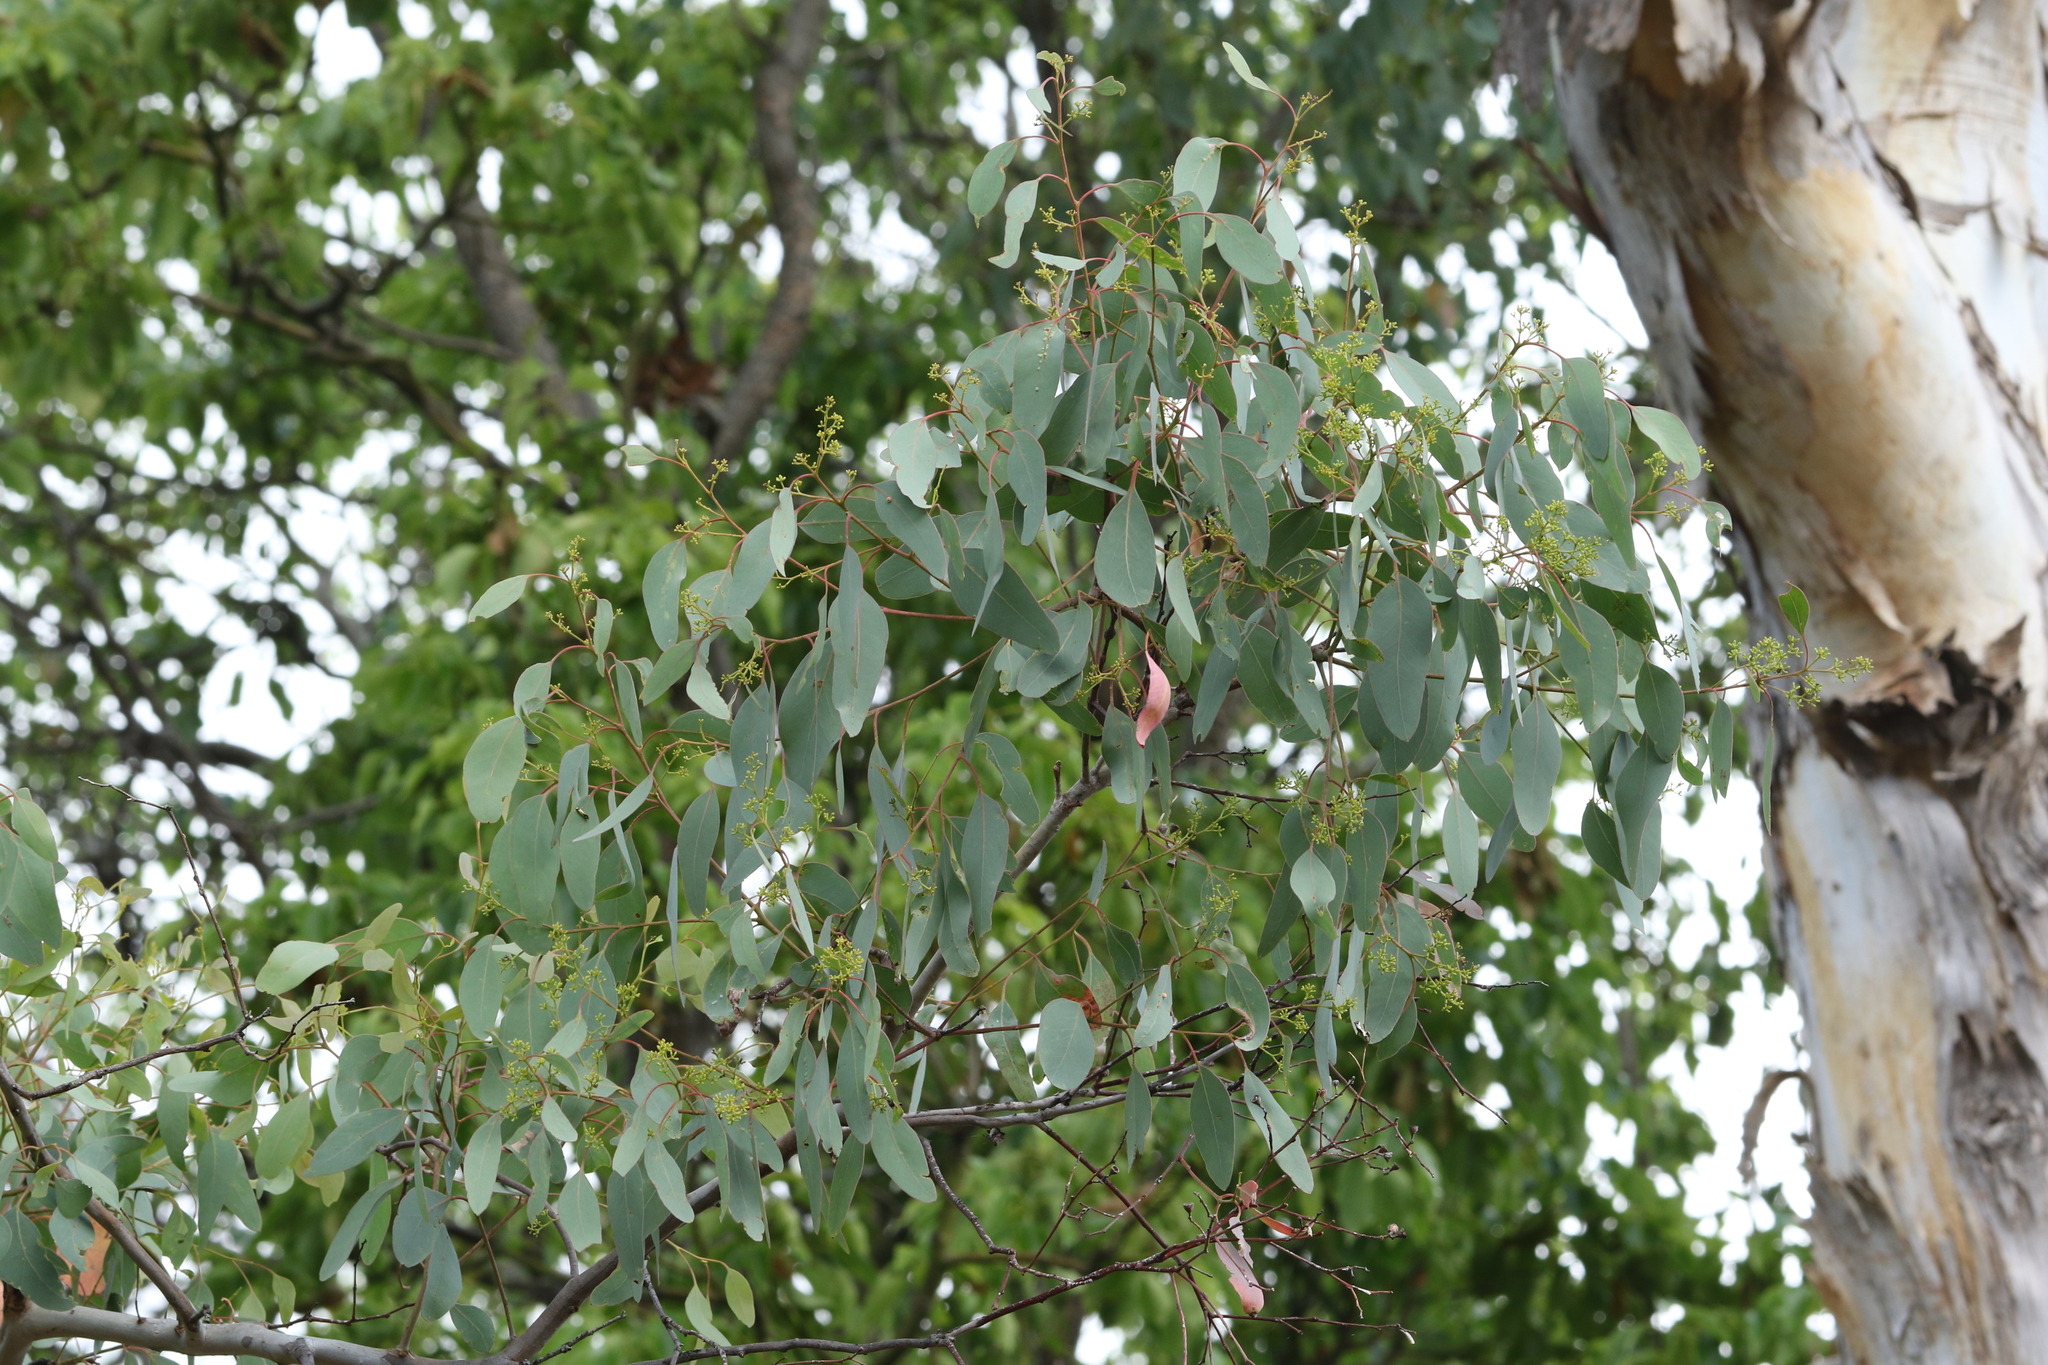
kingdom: Plantae
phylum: Tracheophyta
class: Magnoliopsida
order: Myrtales
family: Myrtaceae
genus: Eucalyptus
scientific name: Eucalyptus polyanthemos
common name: Red-box
